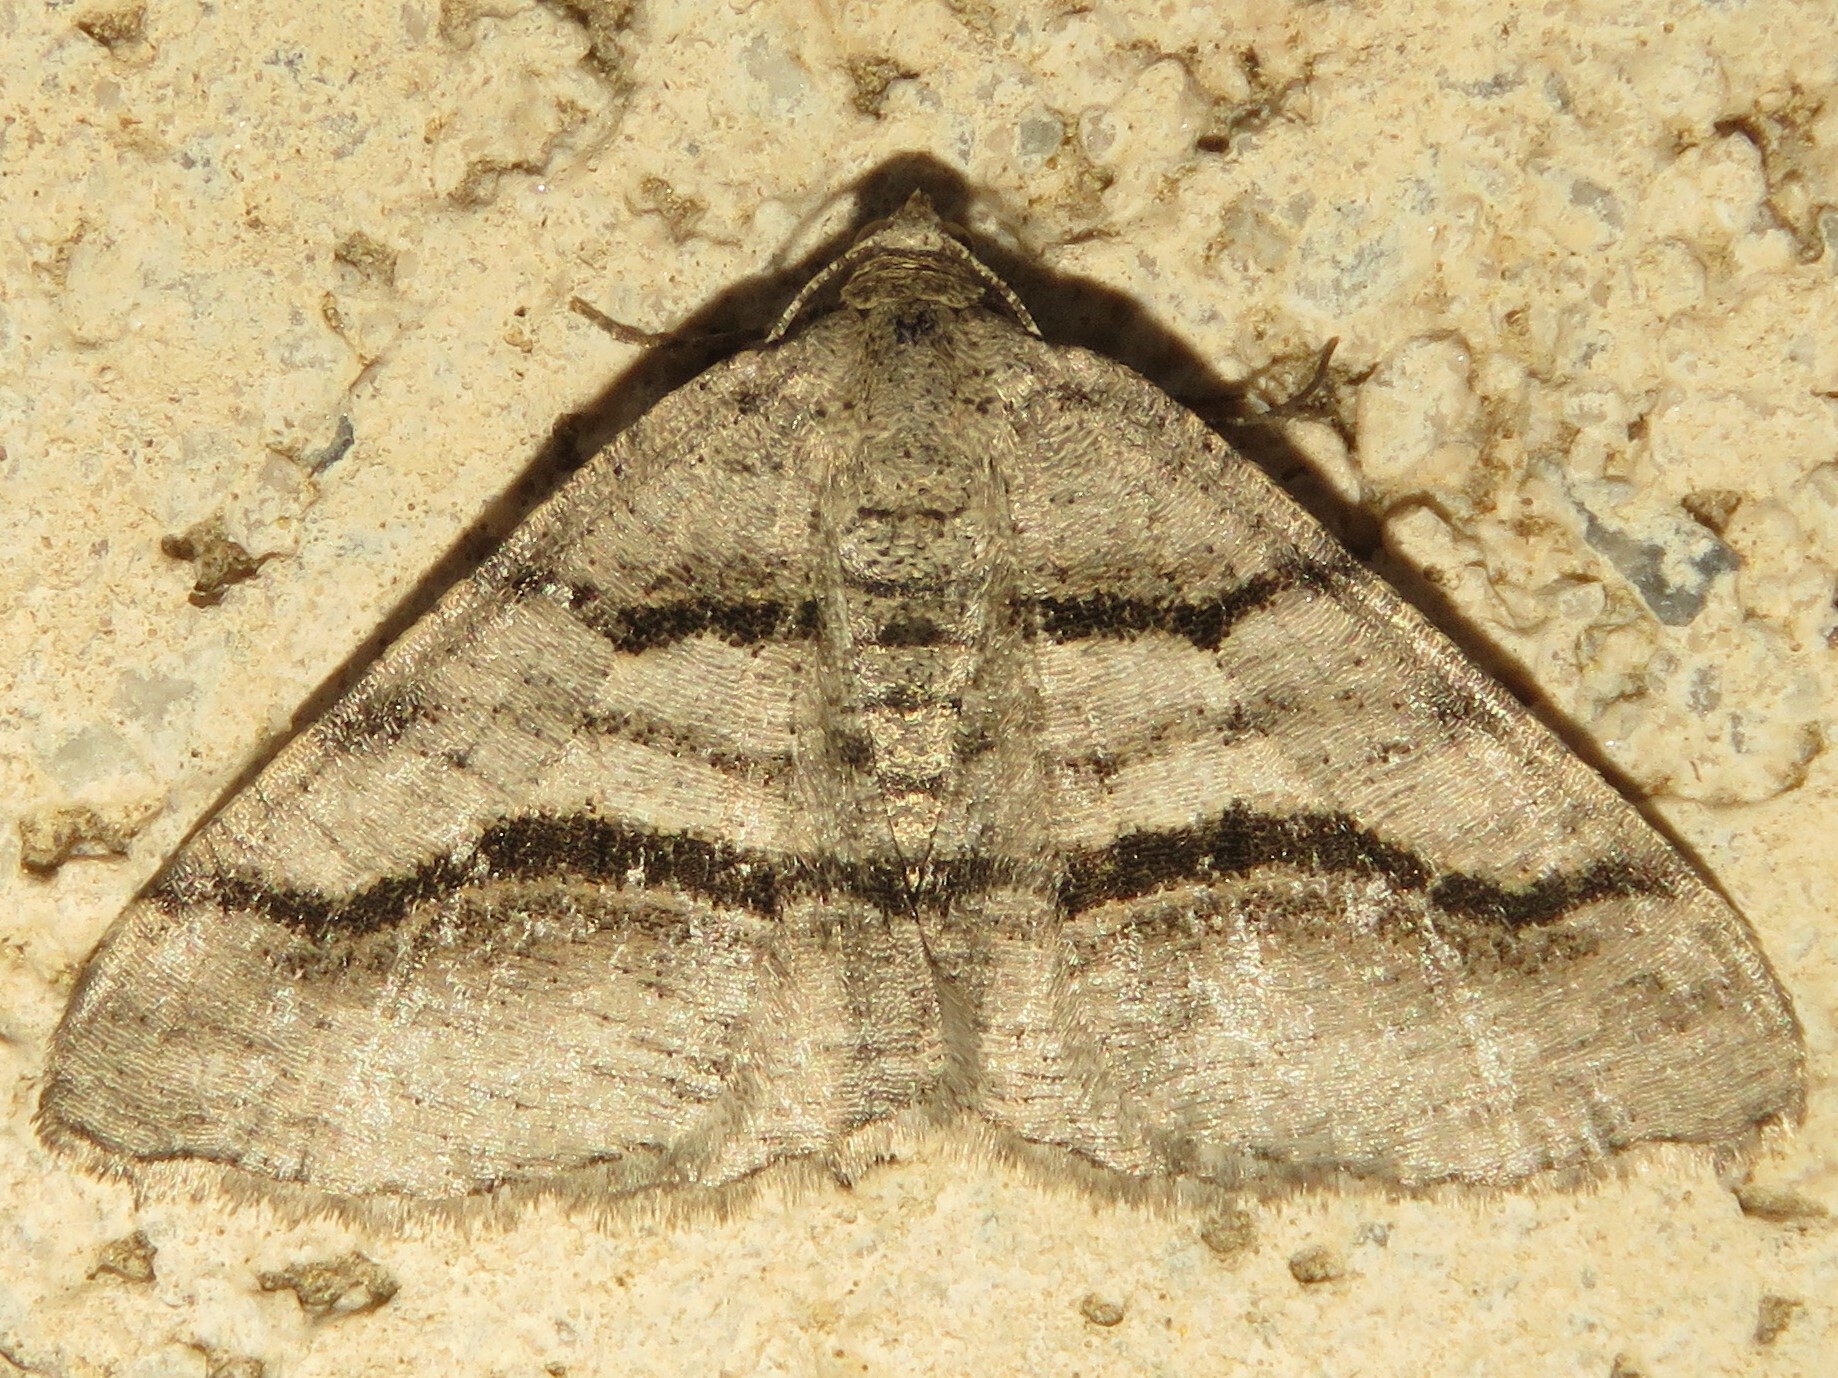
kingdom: Animalia
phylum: Arthropoda
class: Insecta
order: Lepidoptera
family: Geometridae
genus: Digrammia
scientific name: Digrammia continuata
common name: Curve-lined angle
